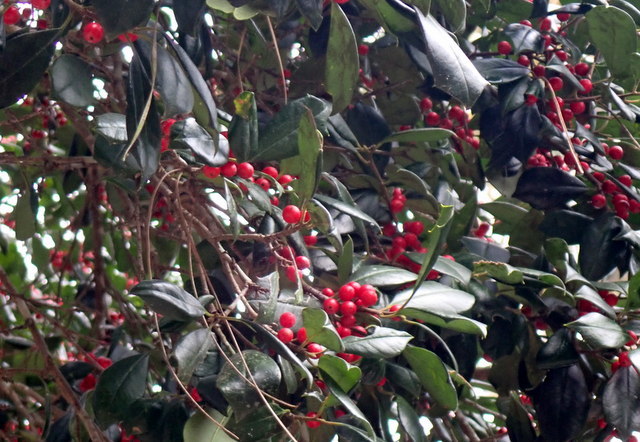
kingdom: Plantae
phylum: Tracheophyta
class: Magnoliopsida
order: Aquifoliales
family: Aquifoliaceae
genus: Ilex
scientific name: Ilex opaca
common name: American holly
